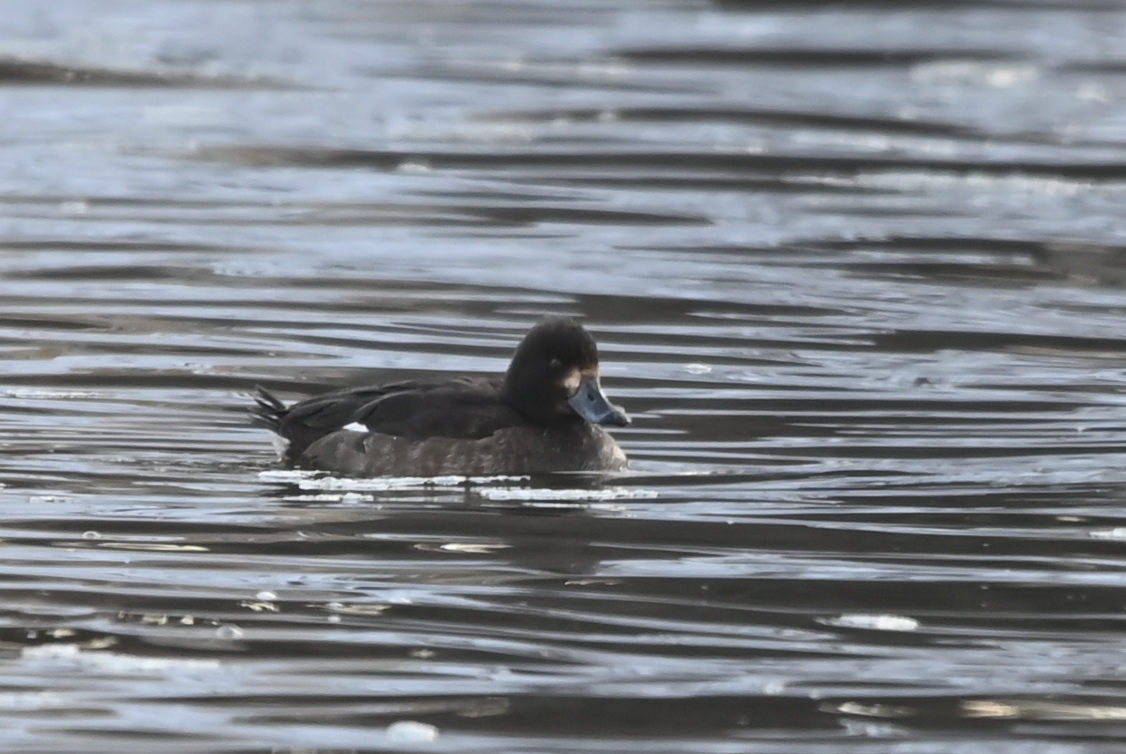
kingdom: Animalia
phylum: Chordata
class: Aves
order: Anseriformes
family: Anatidae
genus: Aythya
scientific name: Aythya fuligula
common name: Tufted duck
